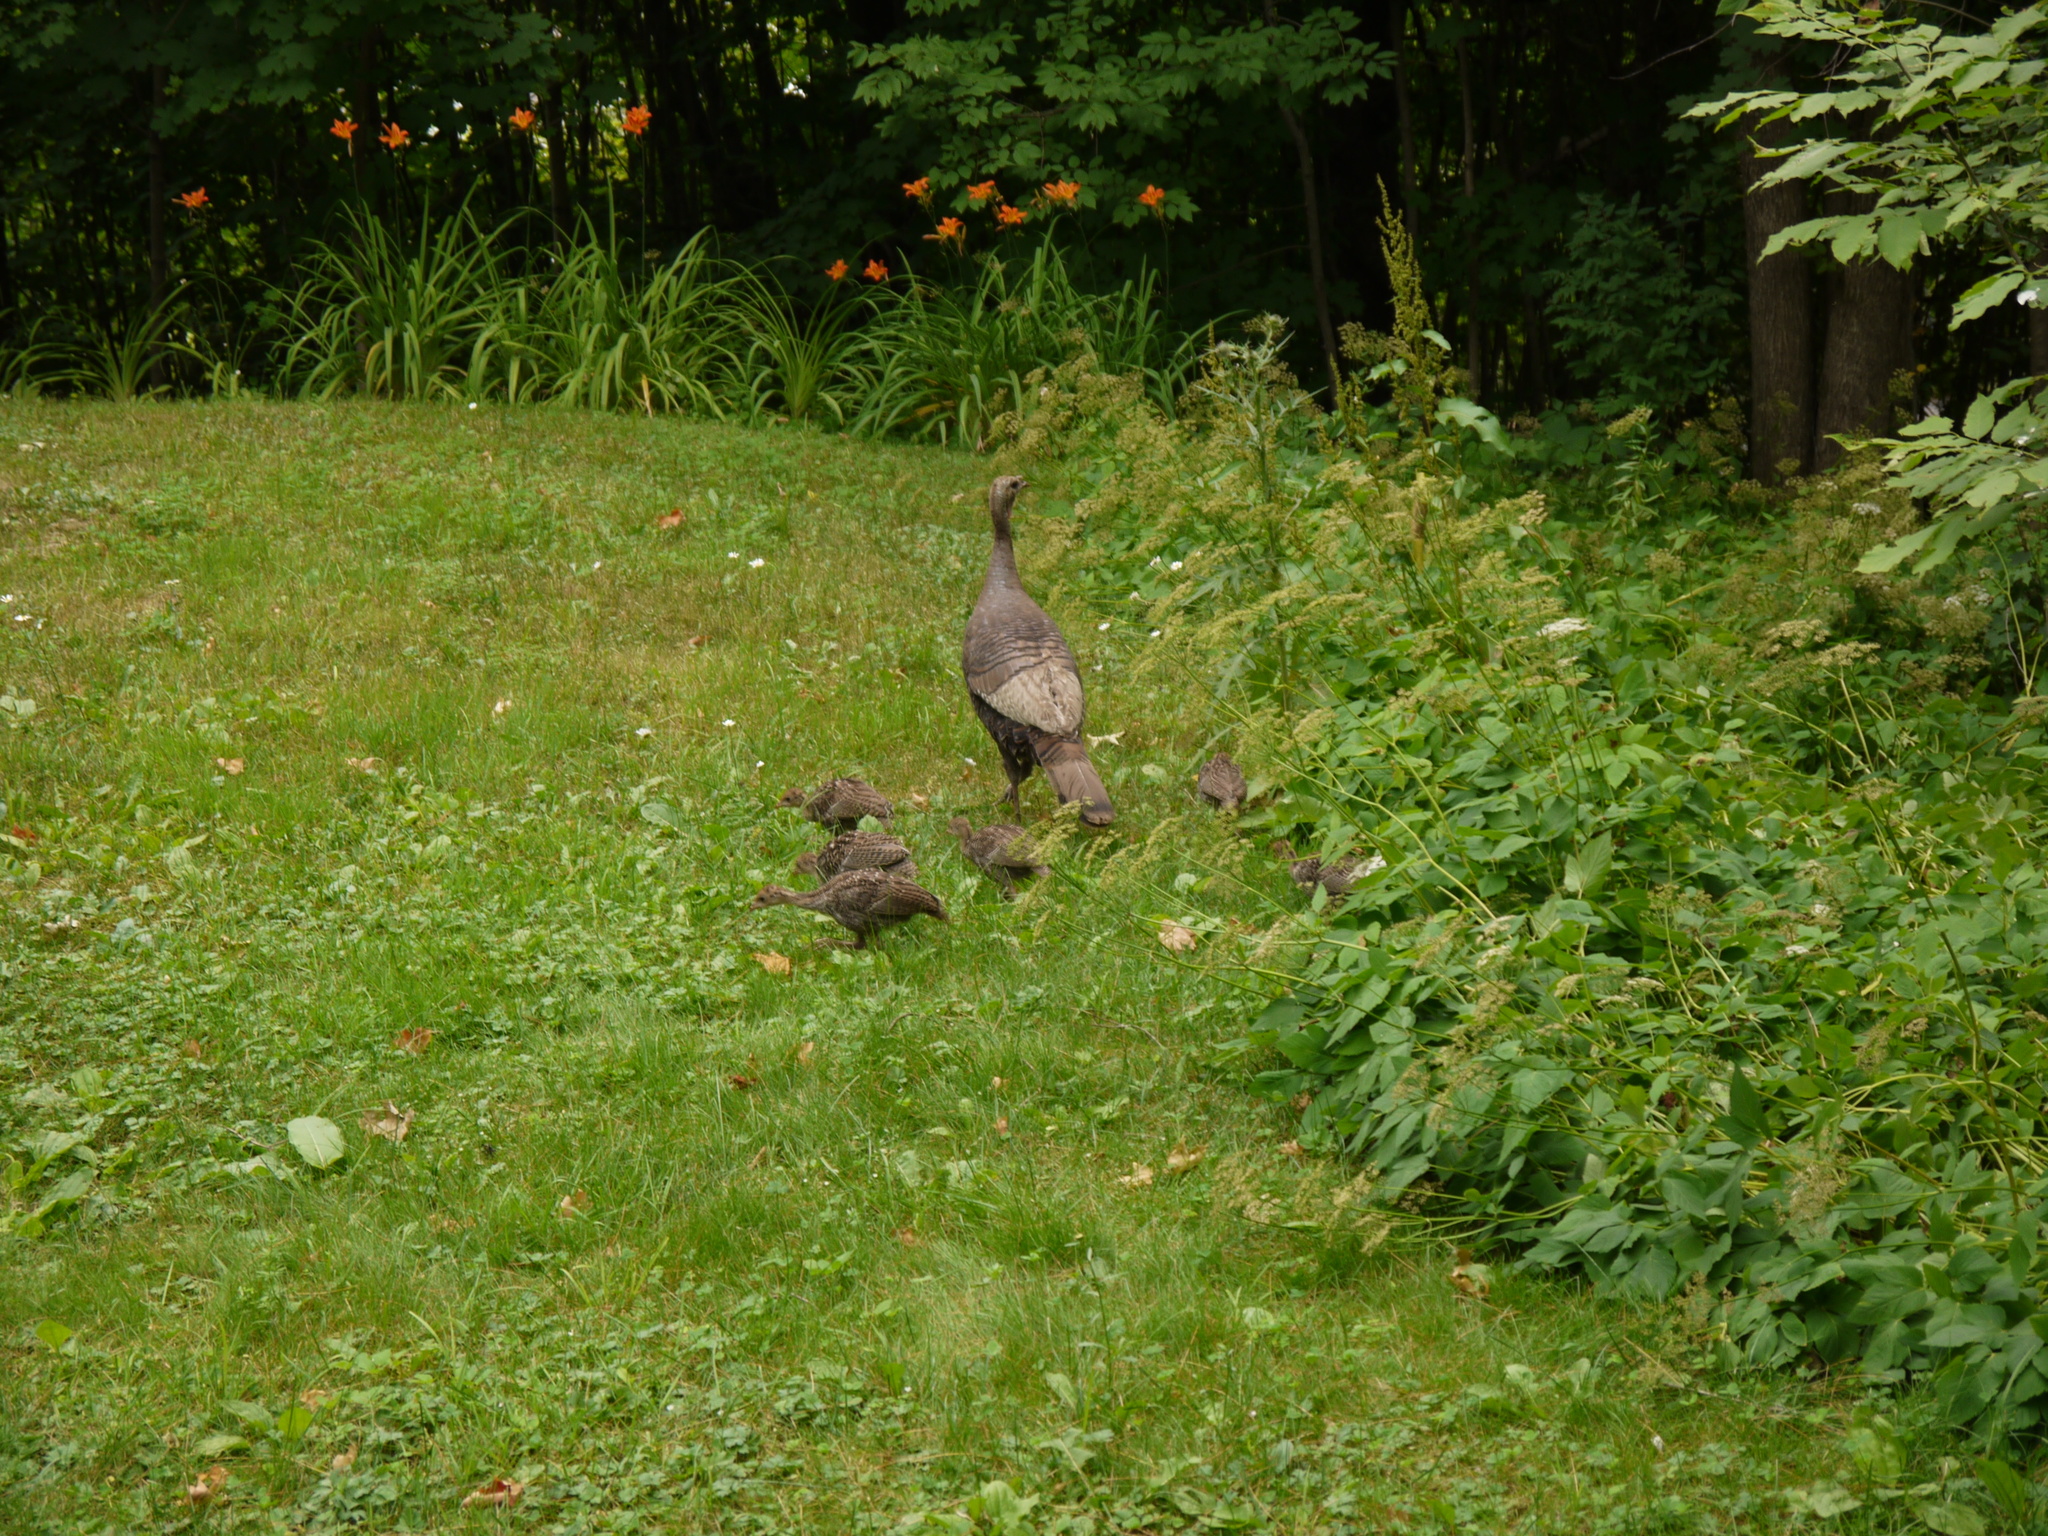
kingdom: Animalia
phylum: Chordata
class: Aves
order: Galliformes
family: Phasianidae
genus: Meleagris
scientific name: Meleagris gallopavo
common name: Wild turkey
